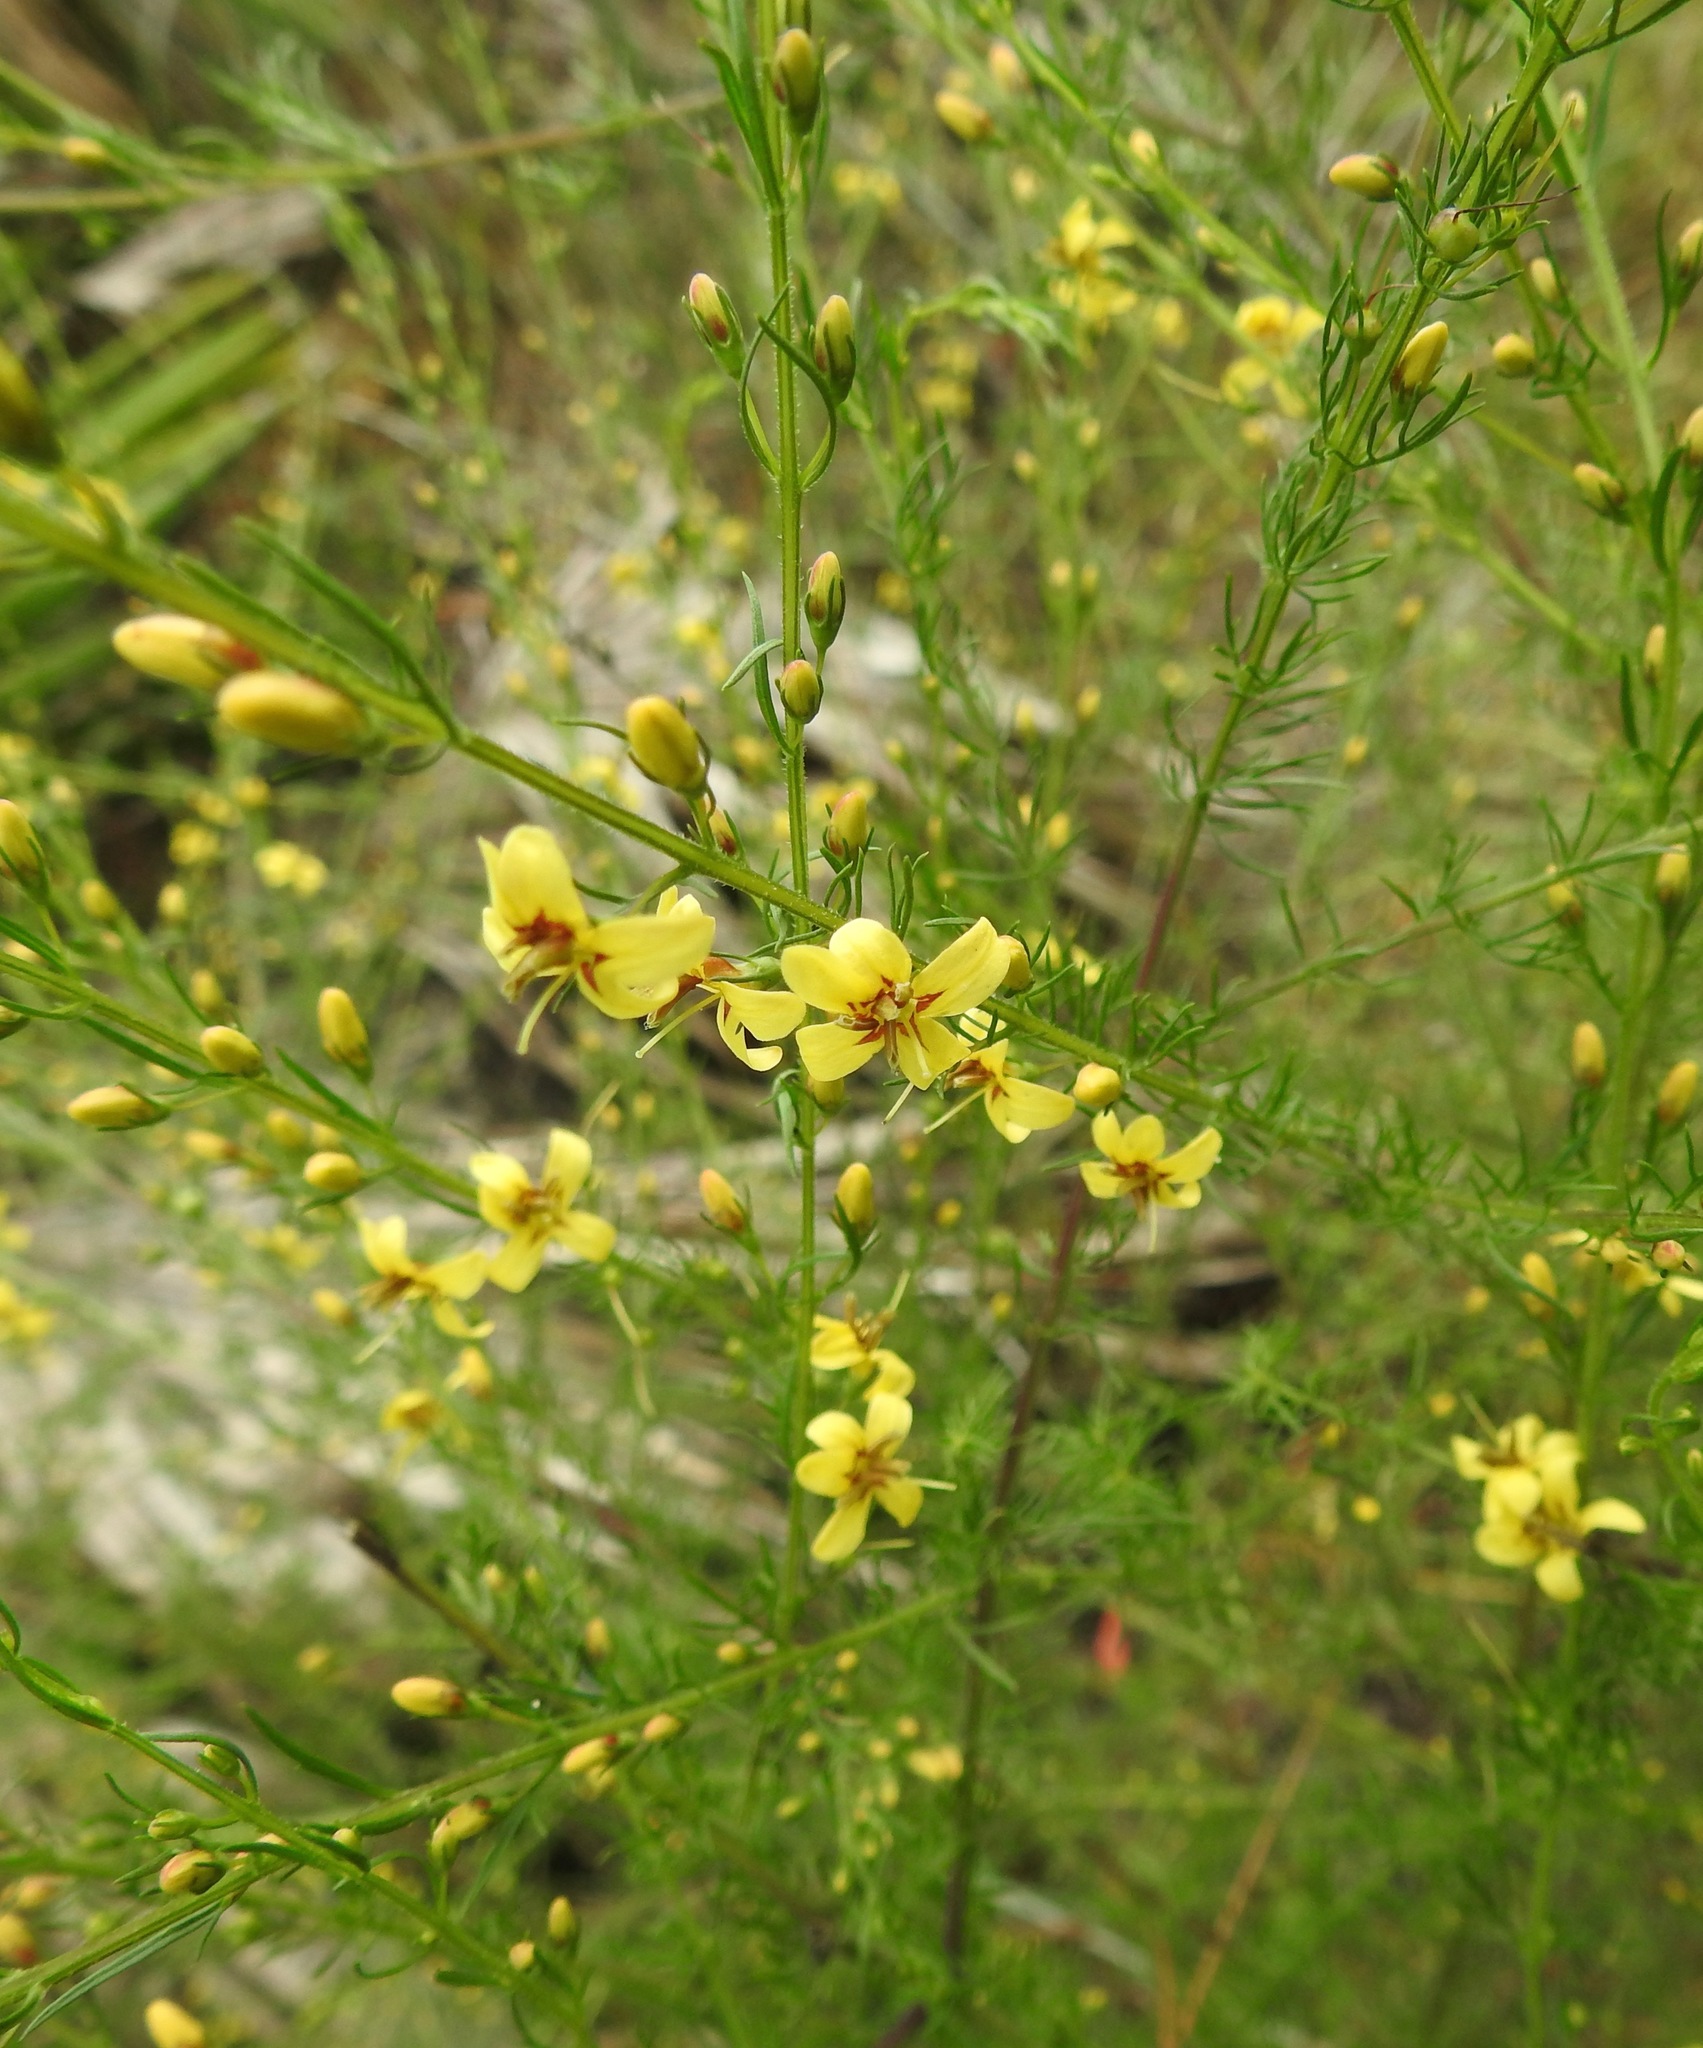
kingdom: Plantae
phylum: Tracheophyta
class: Magnoliopsida
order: Lamiales
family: Orobanchaceae
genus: Seymeria
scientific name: Seymeria cassioides
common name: Yaupon black-senna
